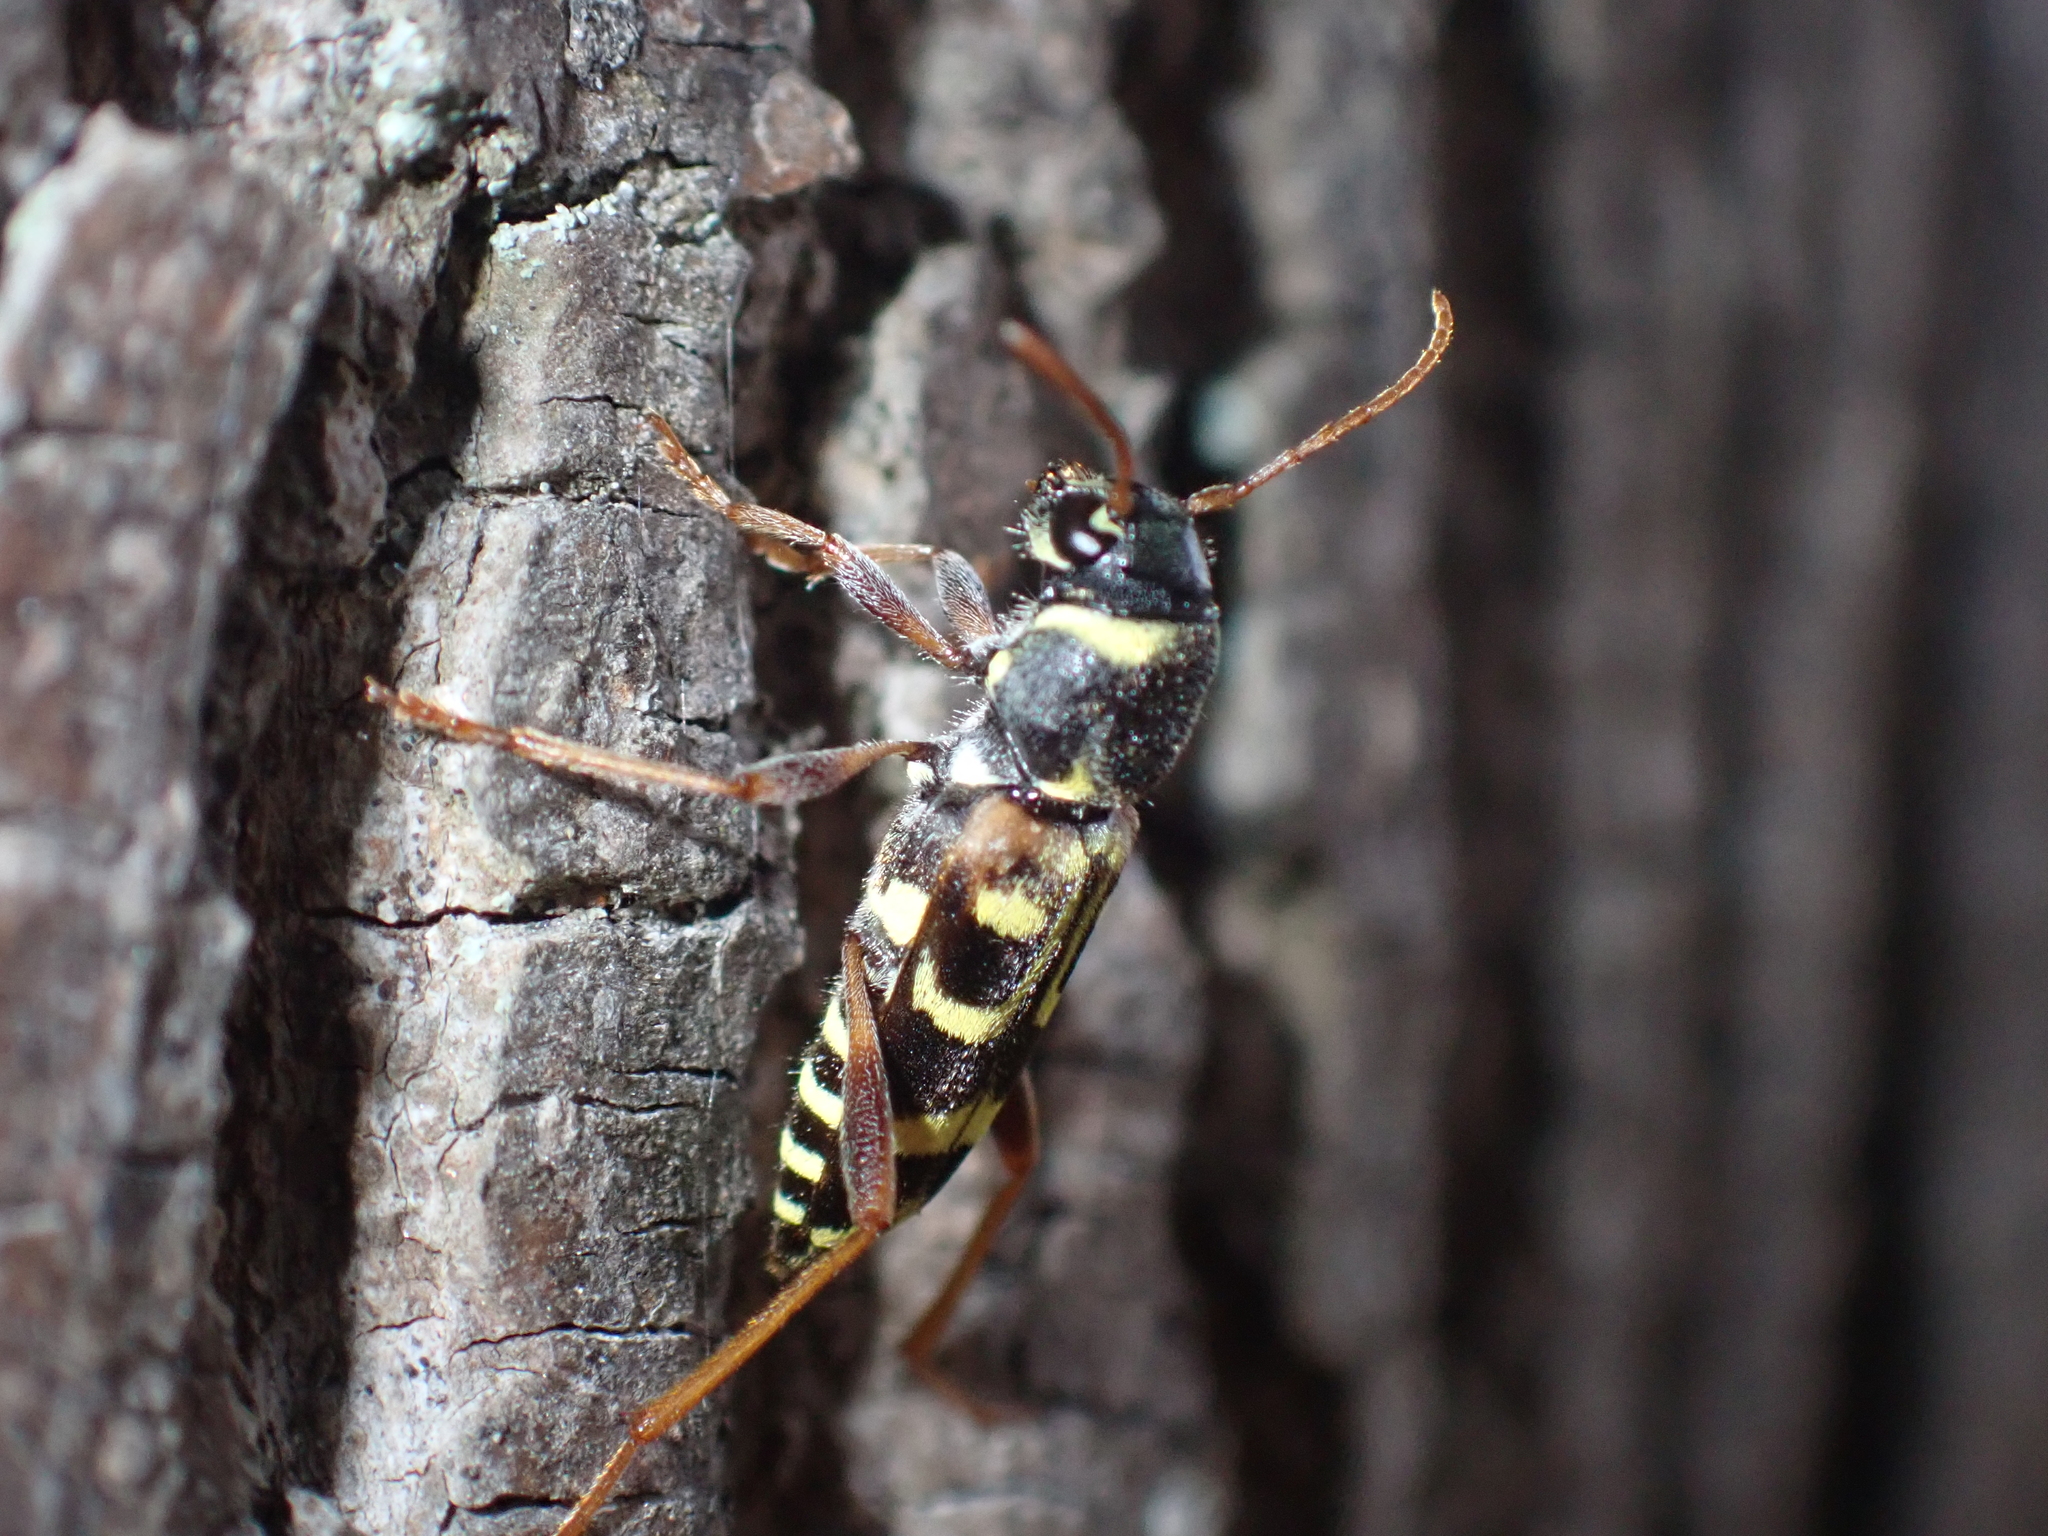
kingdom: Animalia
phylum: Arthropoda
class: Insecta
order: Coleoptera
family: Cerambycidae
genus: Xylotrechus
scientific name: Xylotrechus arvicola
